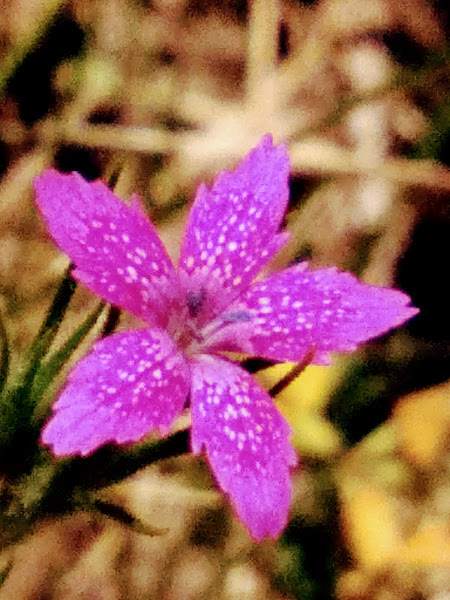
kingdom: Plantae
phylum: Tracheophyta
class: Magnoliopsida
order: Caryophyllales
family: Caryophyllaceae
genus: Dianthus
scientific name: Dianthus armeria
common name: Deptford pink
